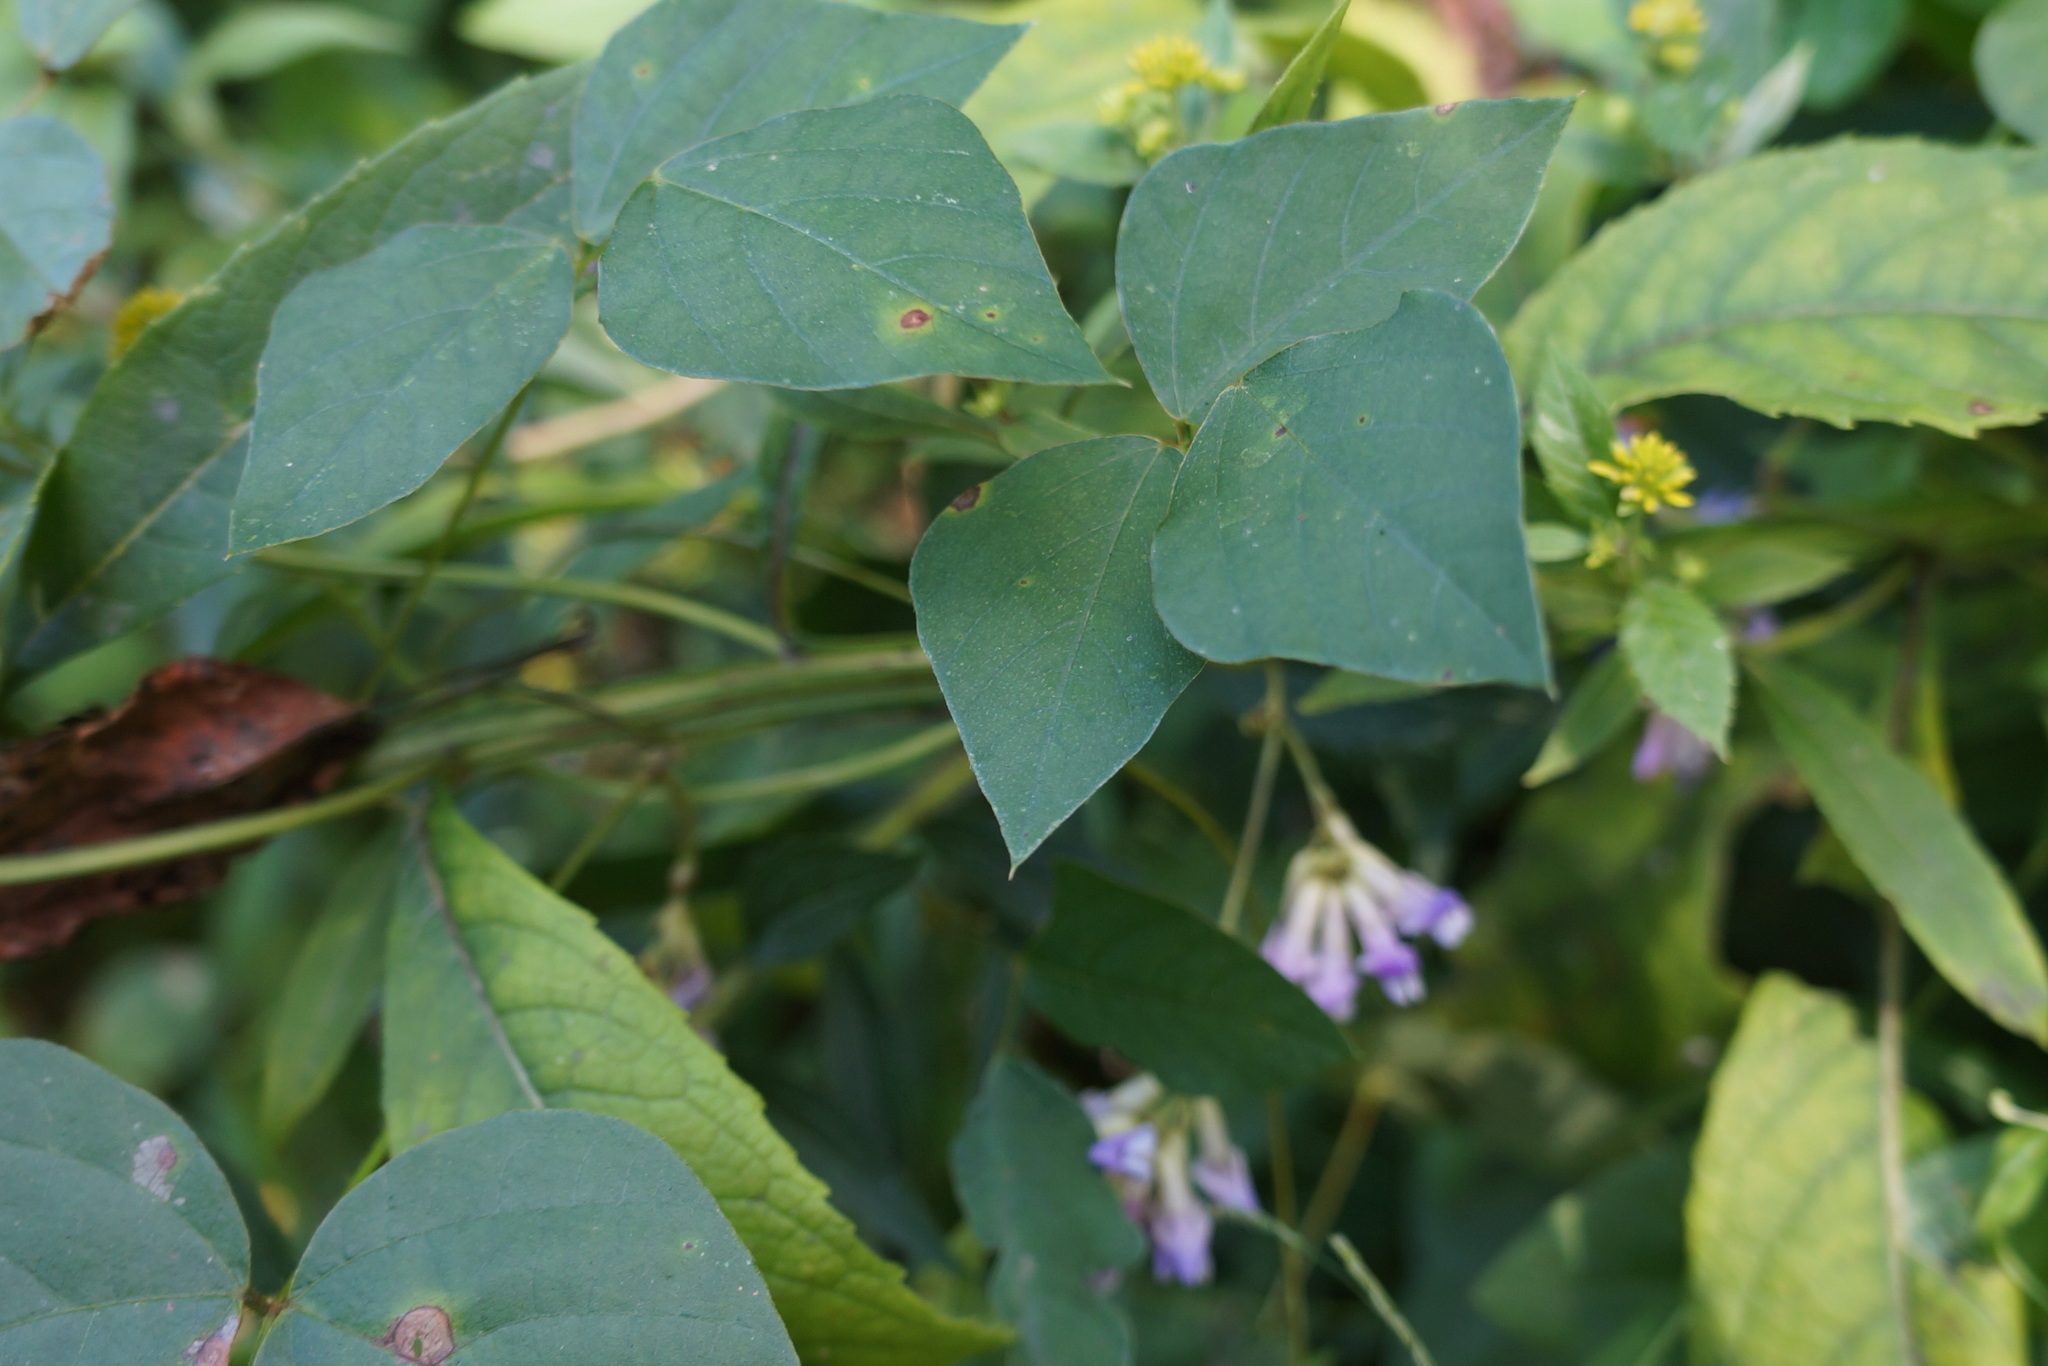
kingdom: Plantae
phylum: Tracheophyta
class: Magnoliopsida
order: Fabales
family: Fabaceae
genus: Amphicarpaea
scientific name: Amphicarpaea bracteata
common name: American hog peanut
